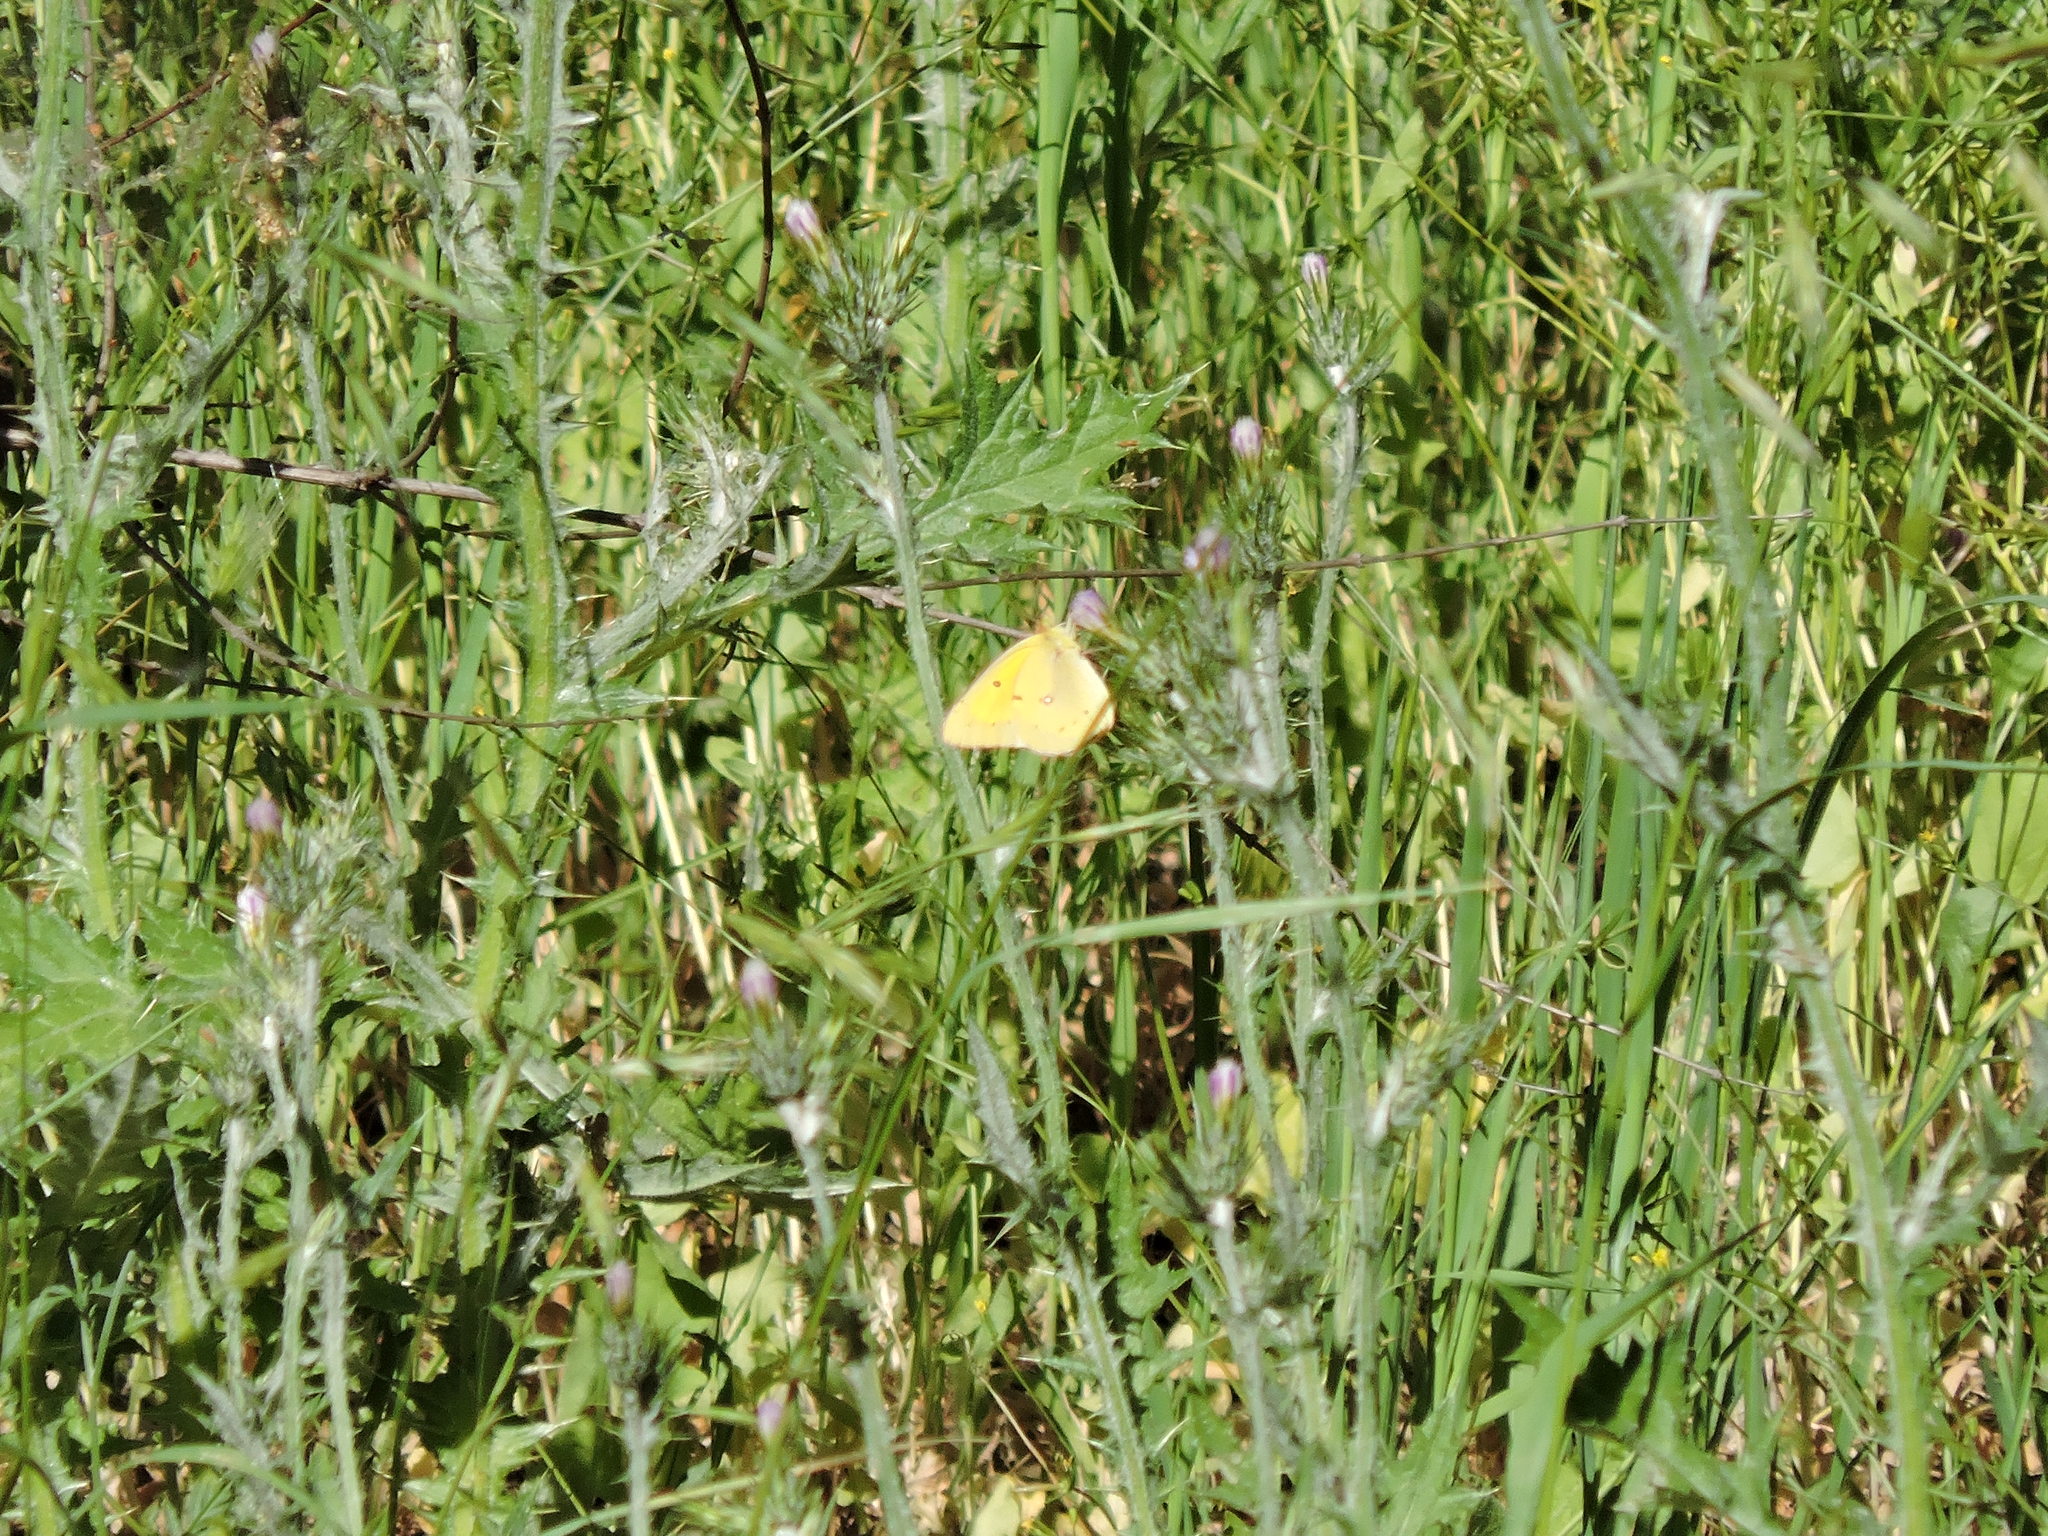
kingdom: Animalia
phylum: Arthropoda
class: Insecta
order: Lepidoptera
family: Pieridae
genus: Colias
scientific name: Colias eurytheme
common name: Alfalfa butterfly
